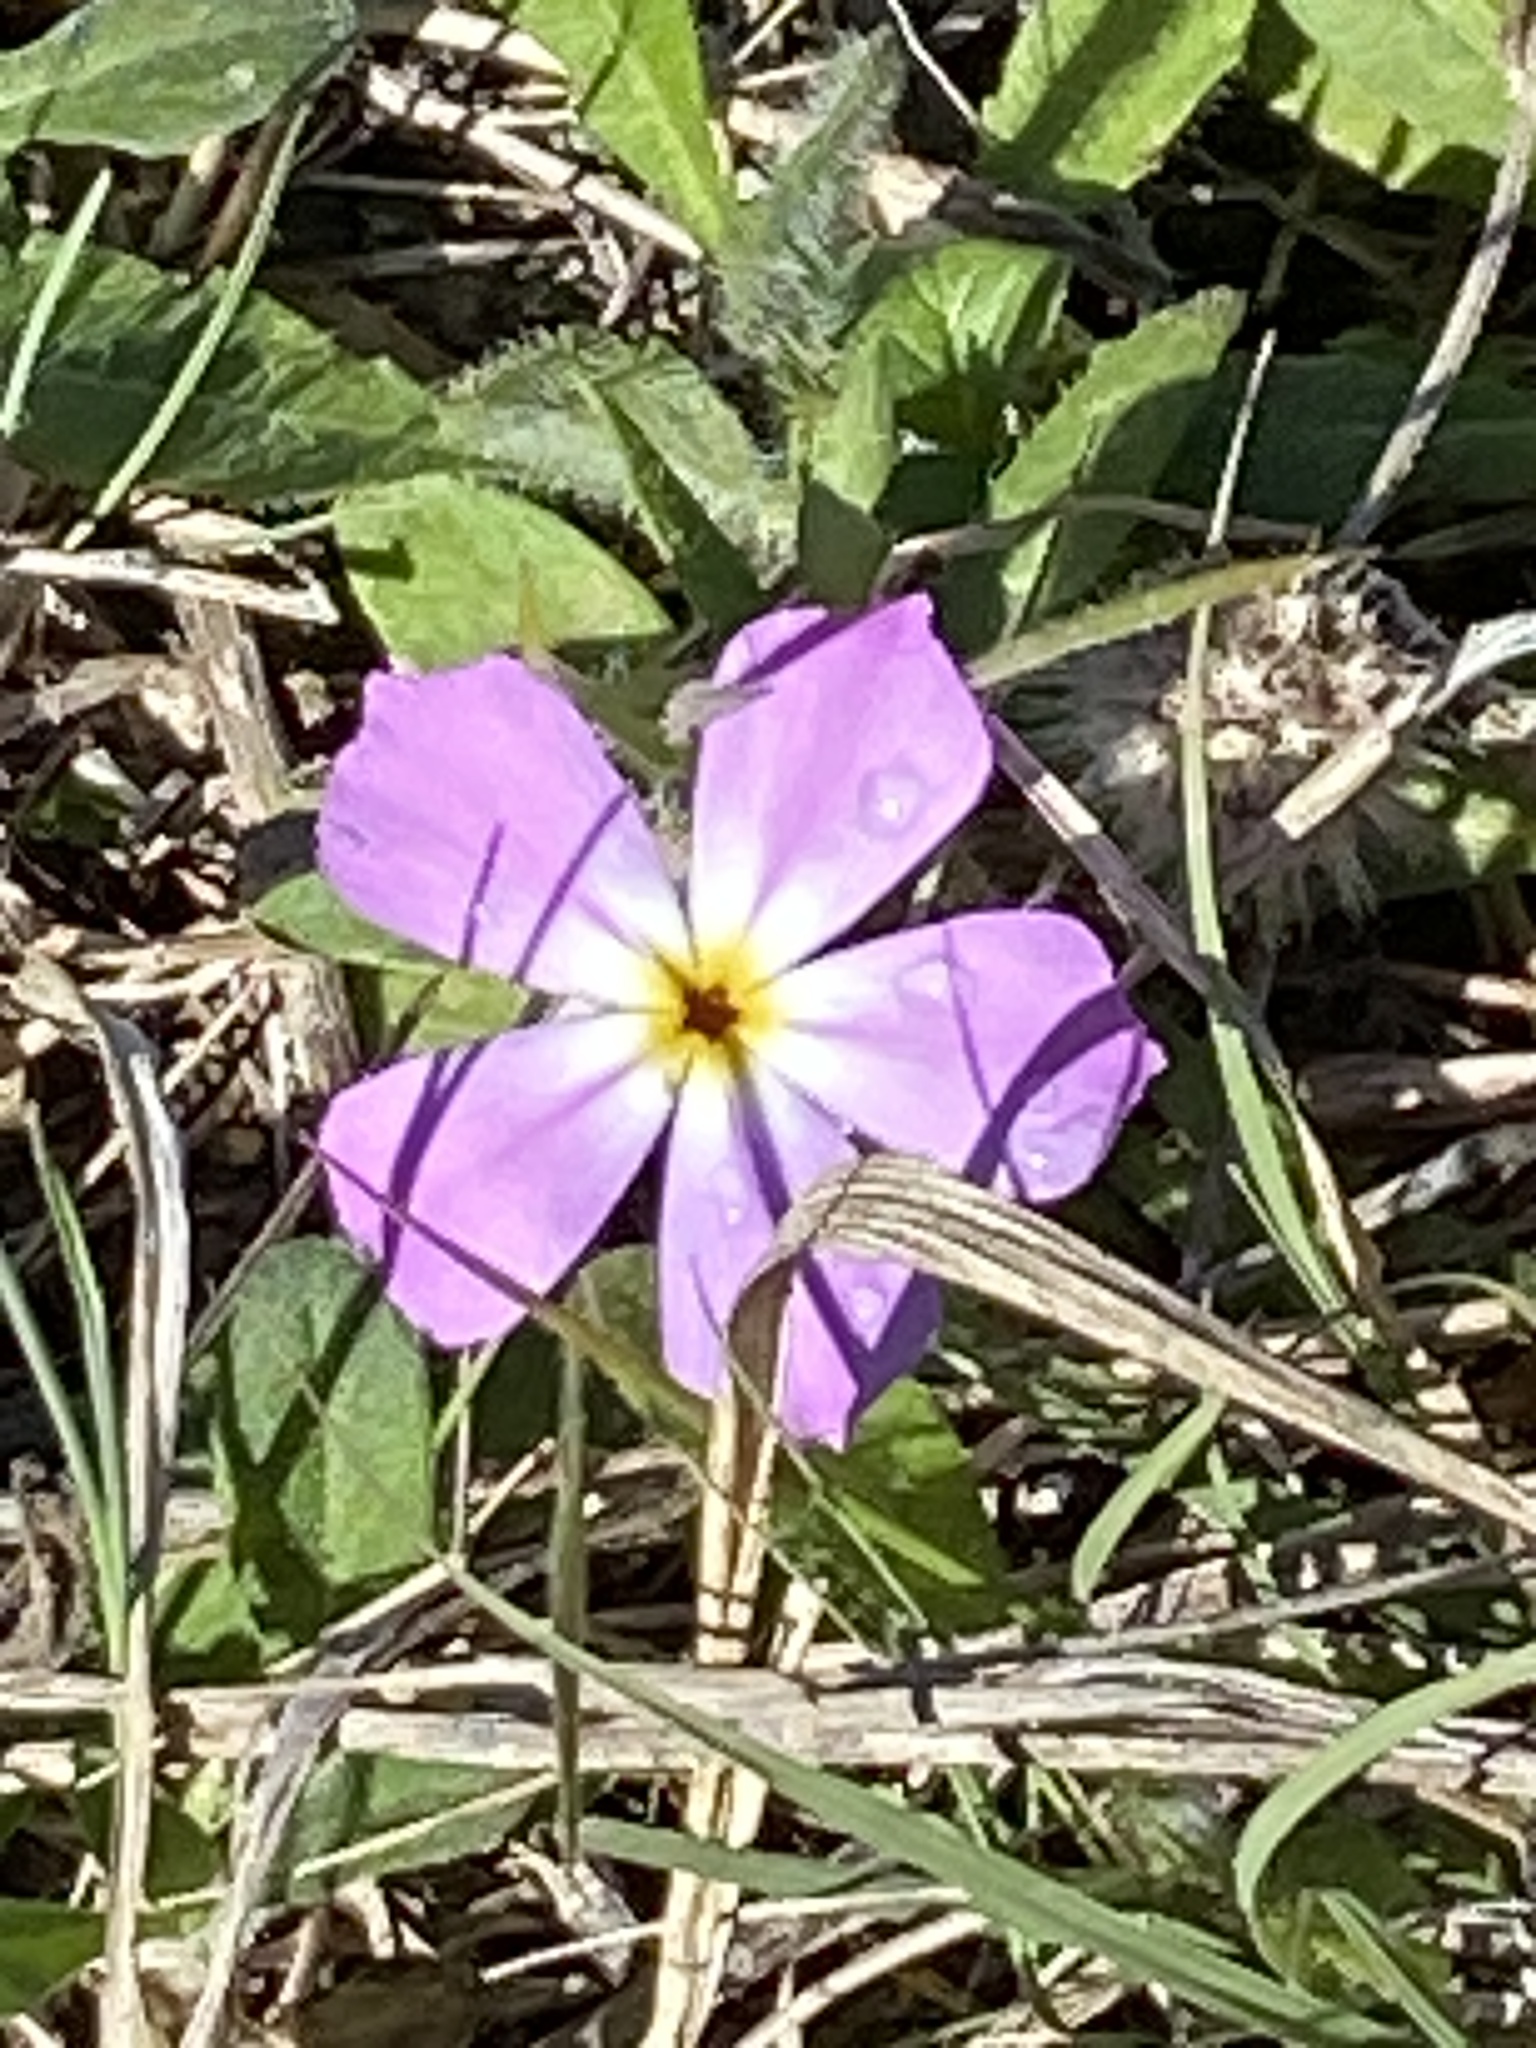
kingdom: Plantae
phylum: Tracheophyta
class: Magnoliopsida
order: Ericales
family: Polemoniaceae
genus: Phlox
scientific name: Phlox roemeriana
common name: Roemer's phlox
